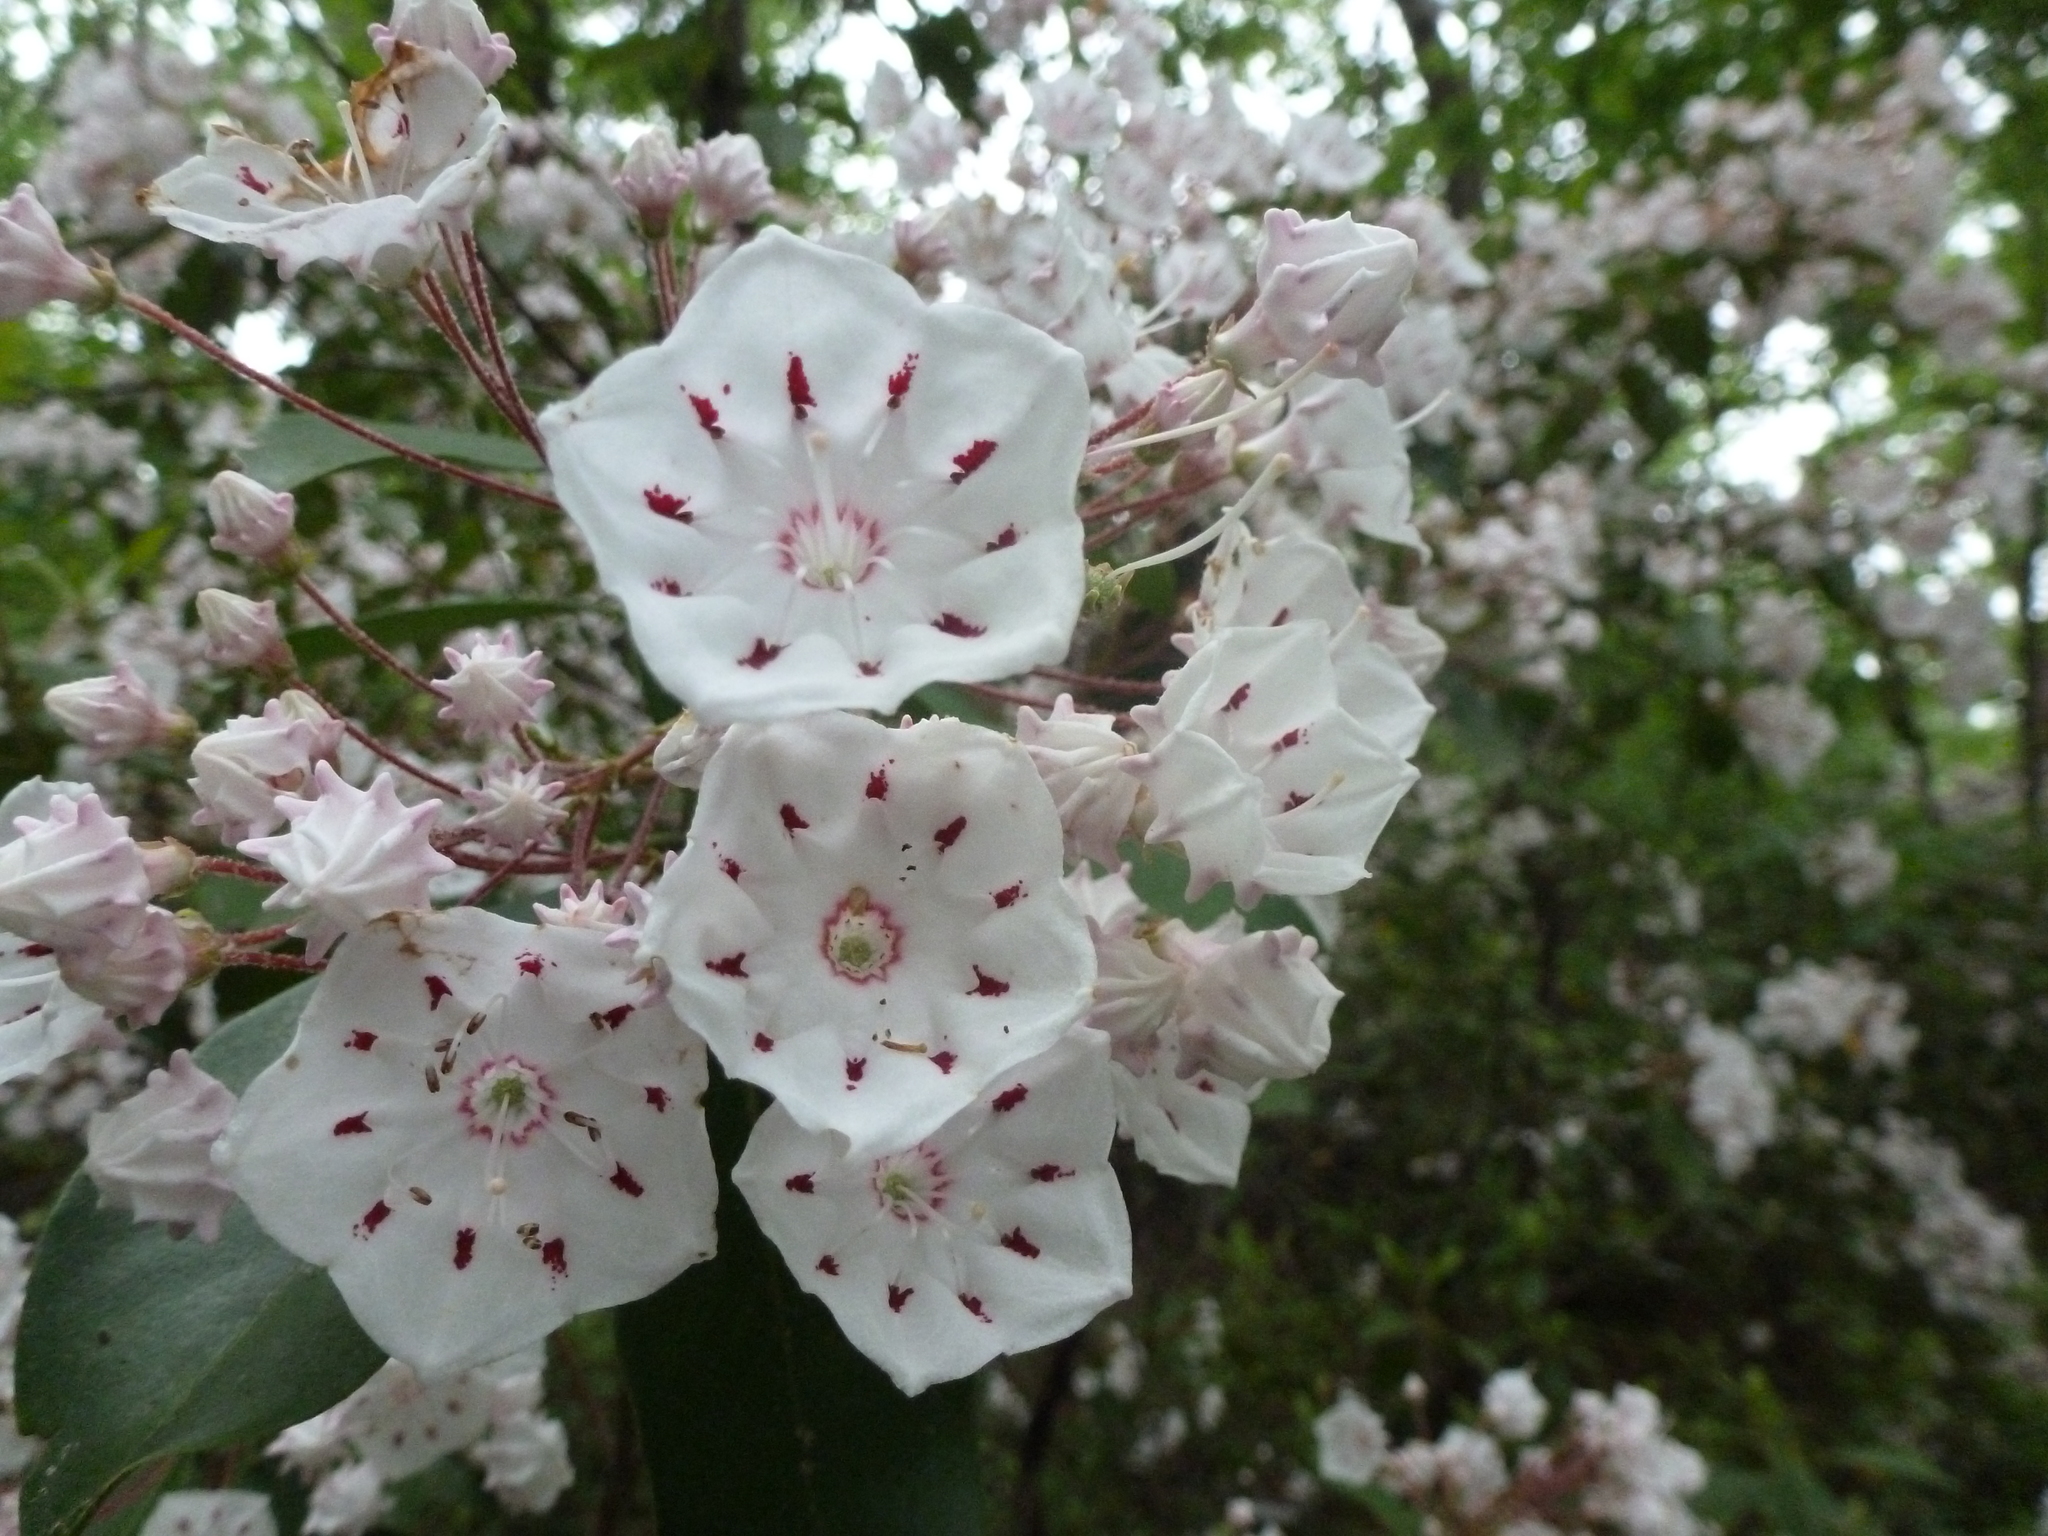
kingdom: Plantae
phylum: Tracheophyta
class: Magnoliopsida
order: Ericales
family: Ericaceae
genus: Kalmia
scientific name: Kalmia latifolia
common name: Mountain-laurel
